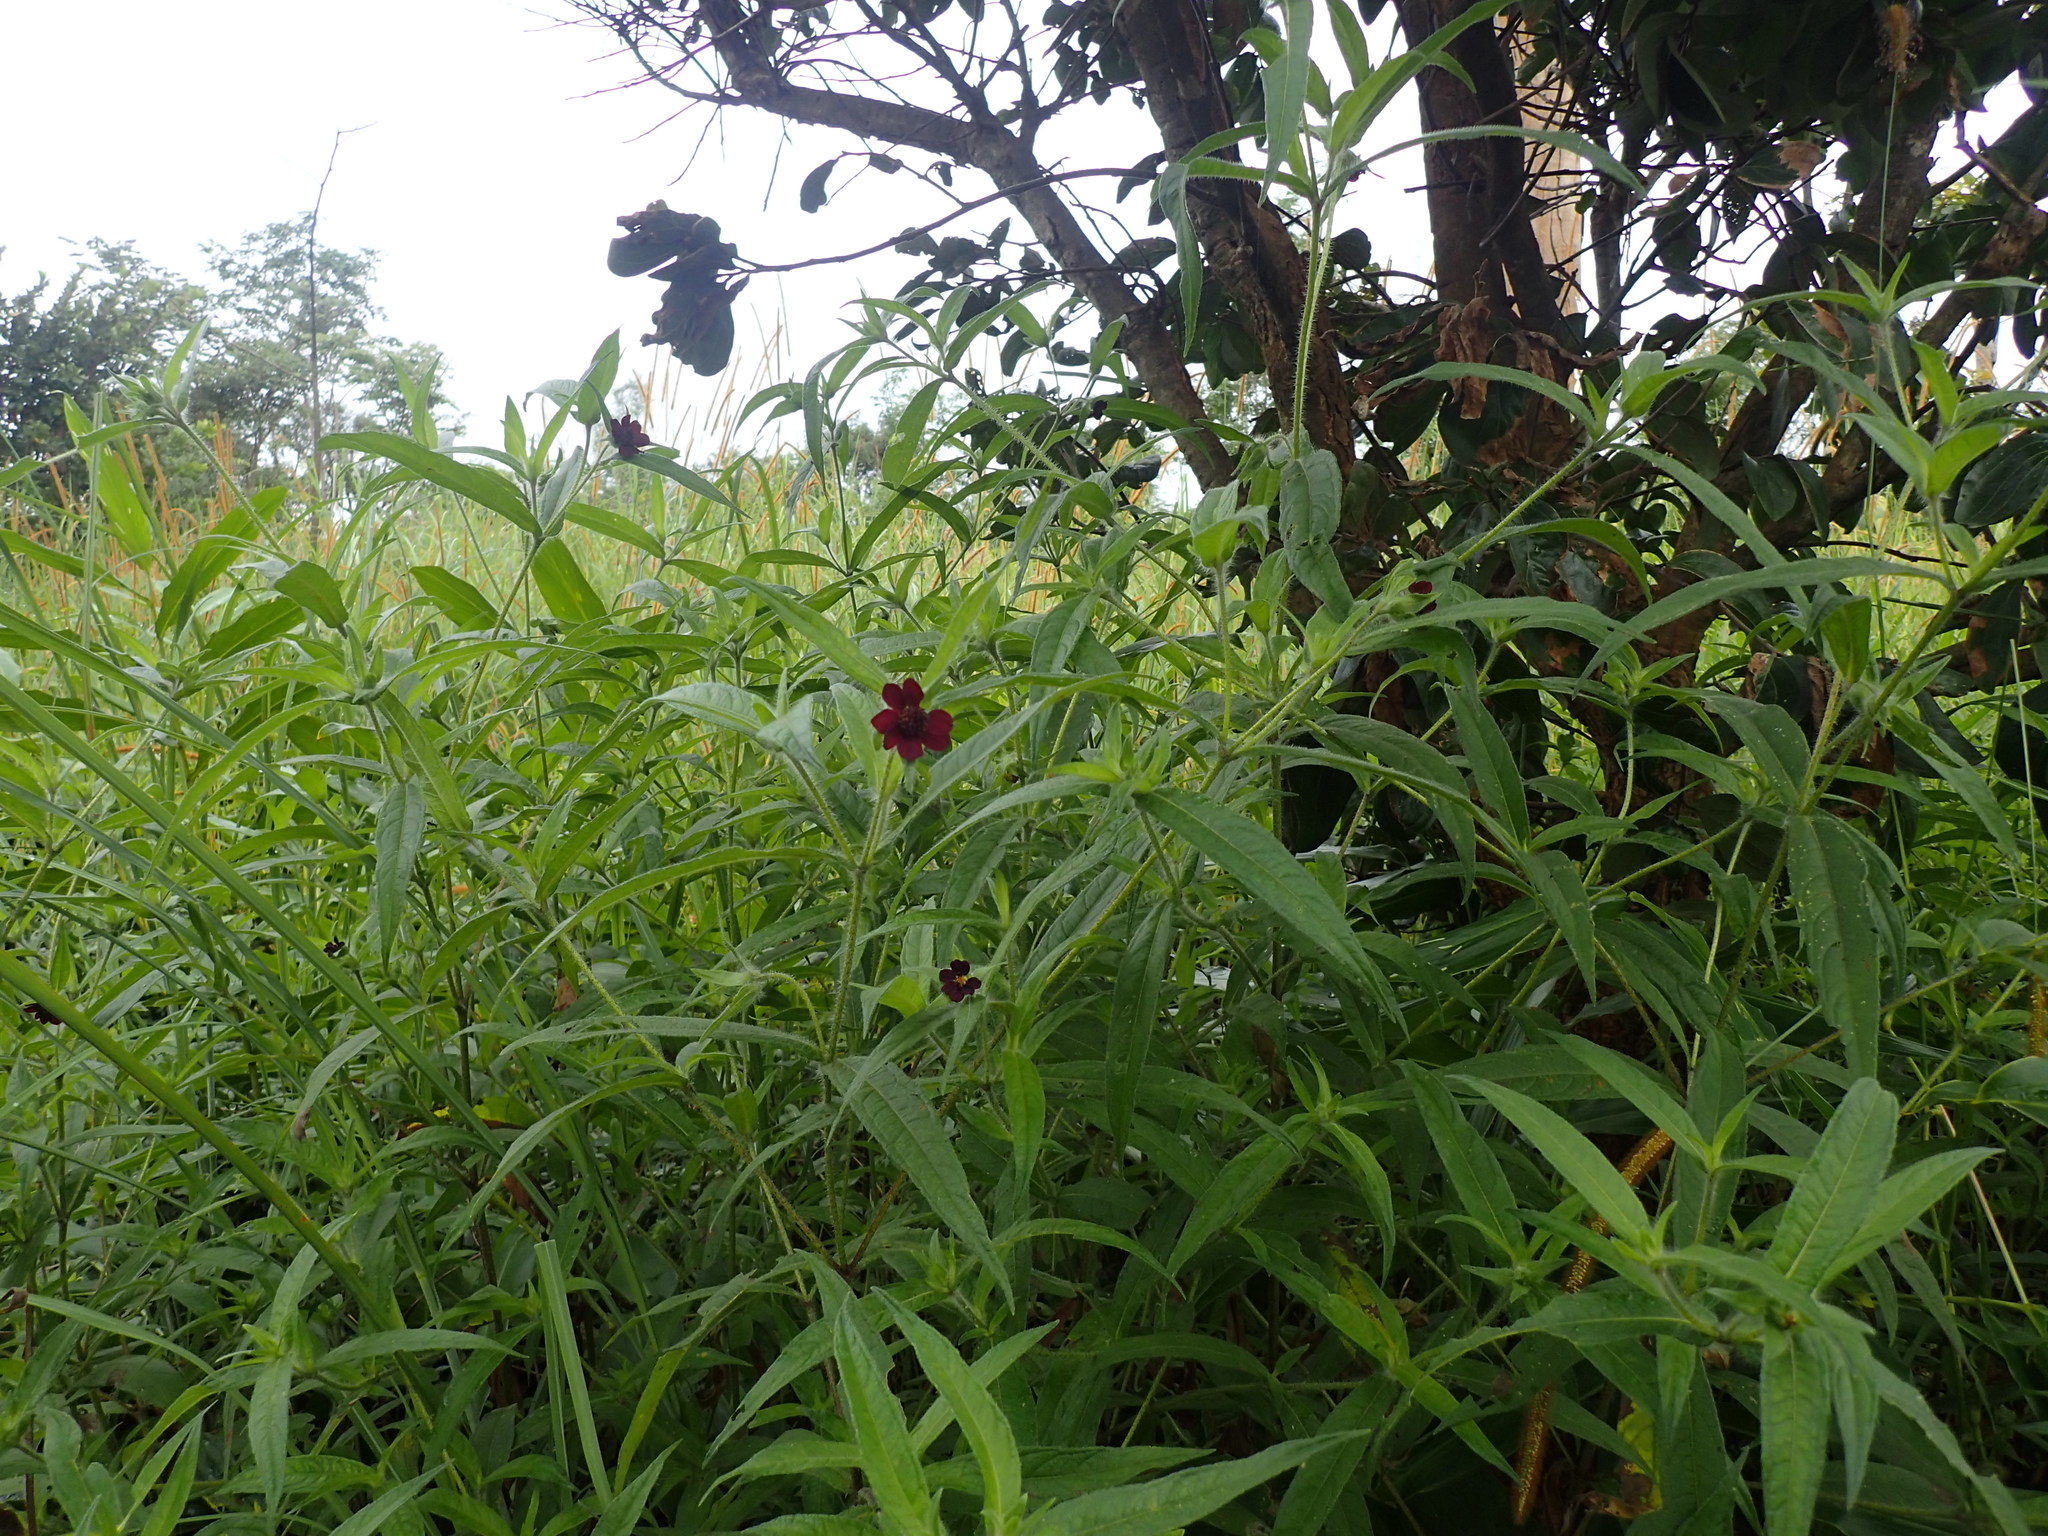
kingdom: Plantae
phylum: Tracheophyta
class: Magnoliopsida
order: Asterales
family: Asteraceae
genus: Aspilia
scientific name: Aspilia kotschyi
